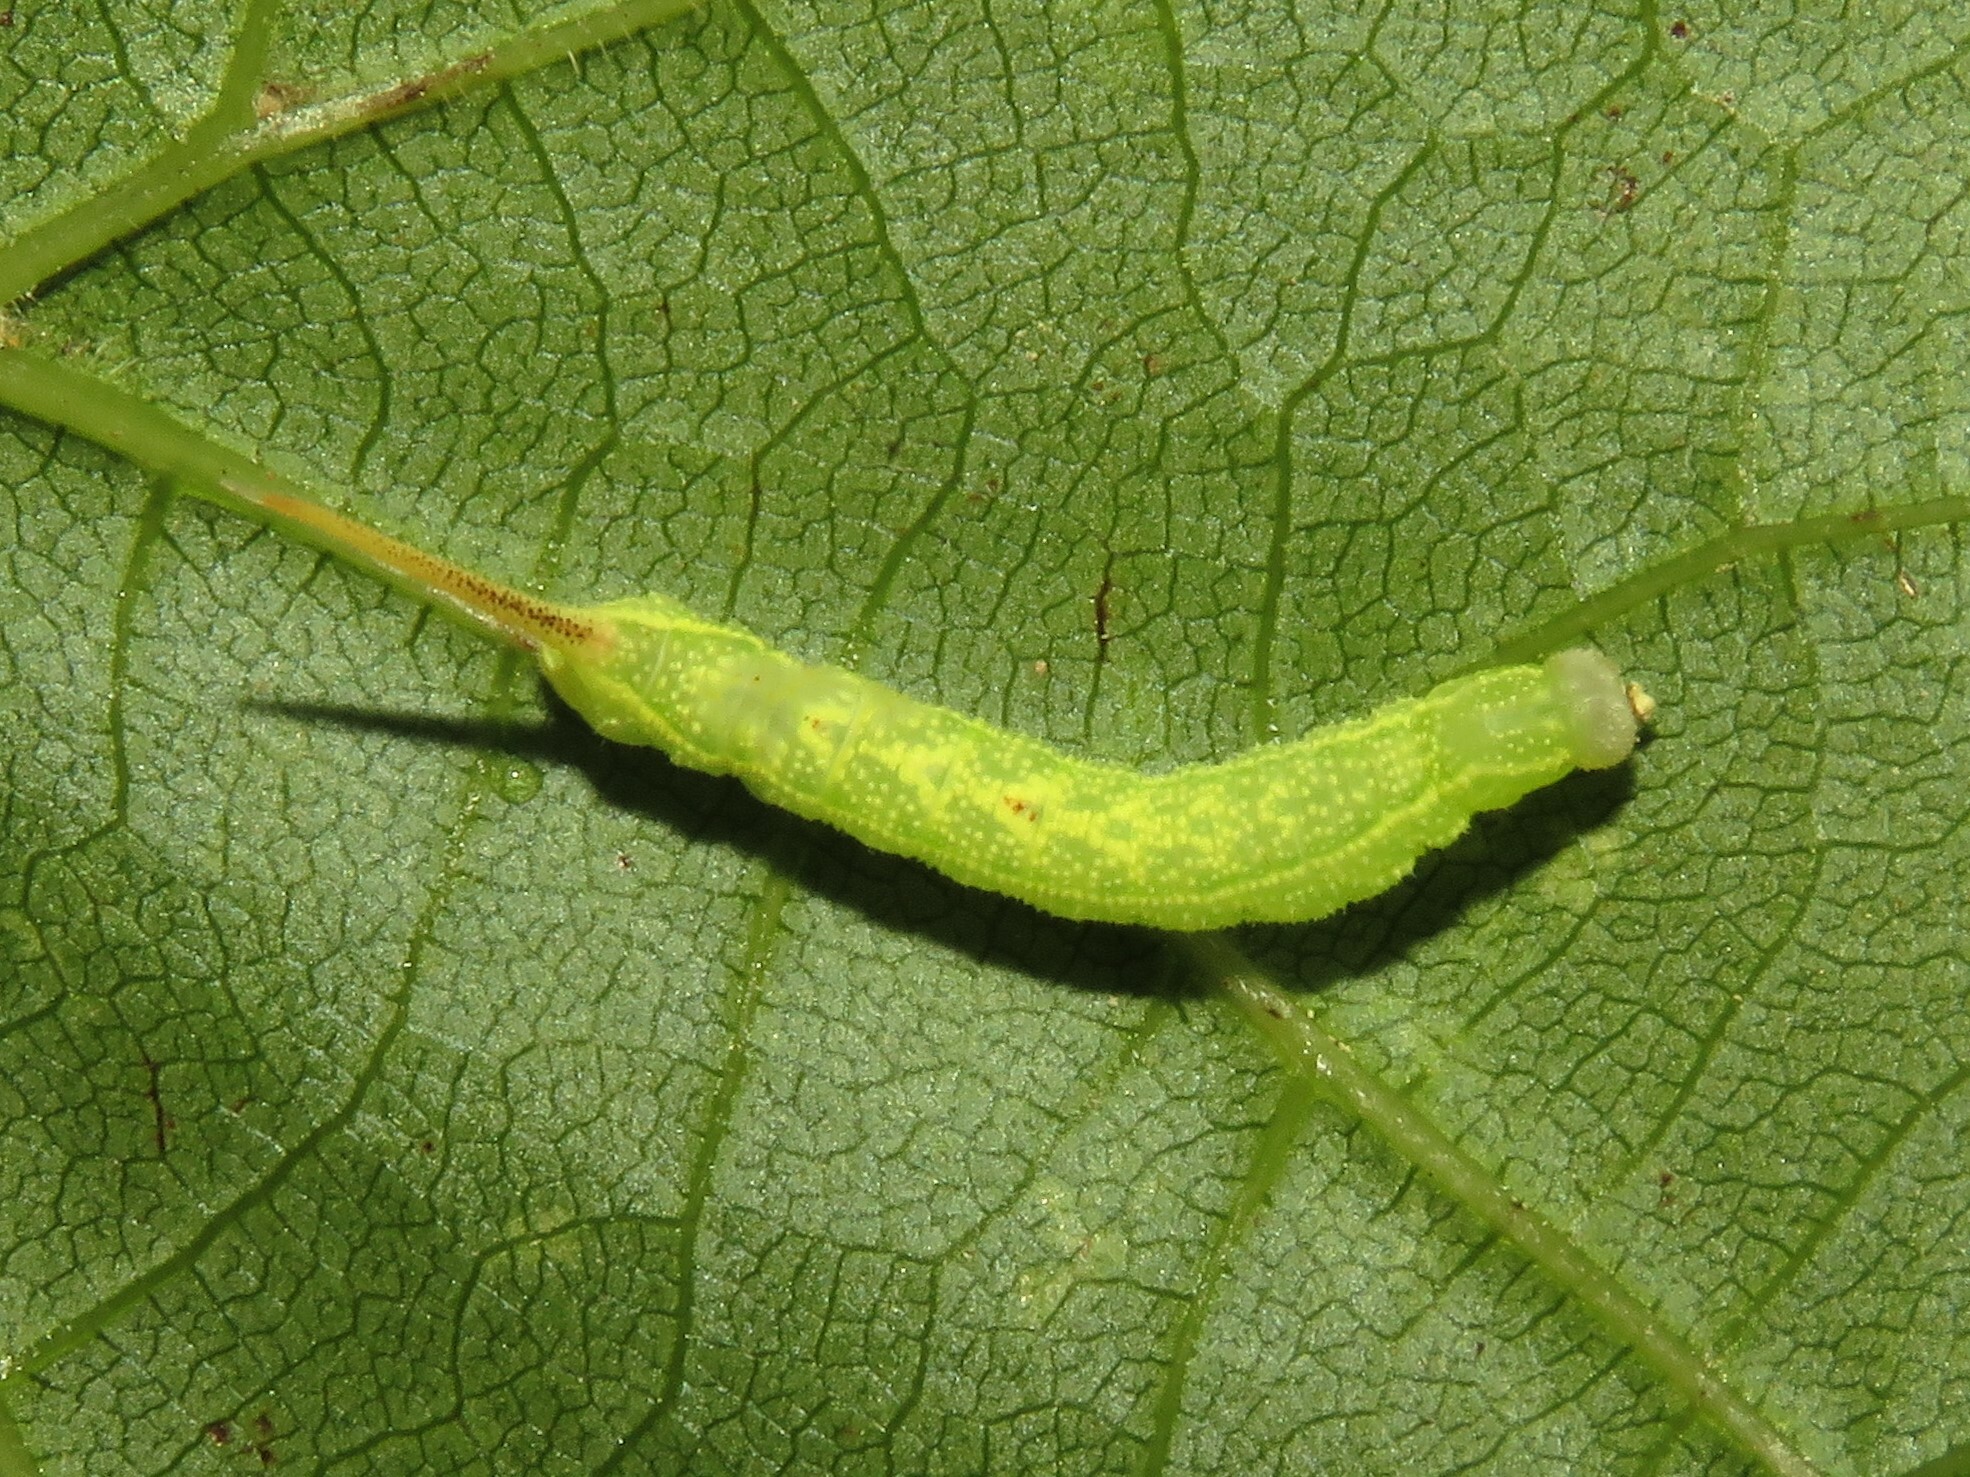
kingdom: Animalia
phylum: Arthropoda
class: Insecta
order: Lepidoptera
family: Sphingidae
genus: Darapsa
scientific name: Darapsa myron
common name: Hog sphinx
